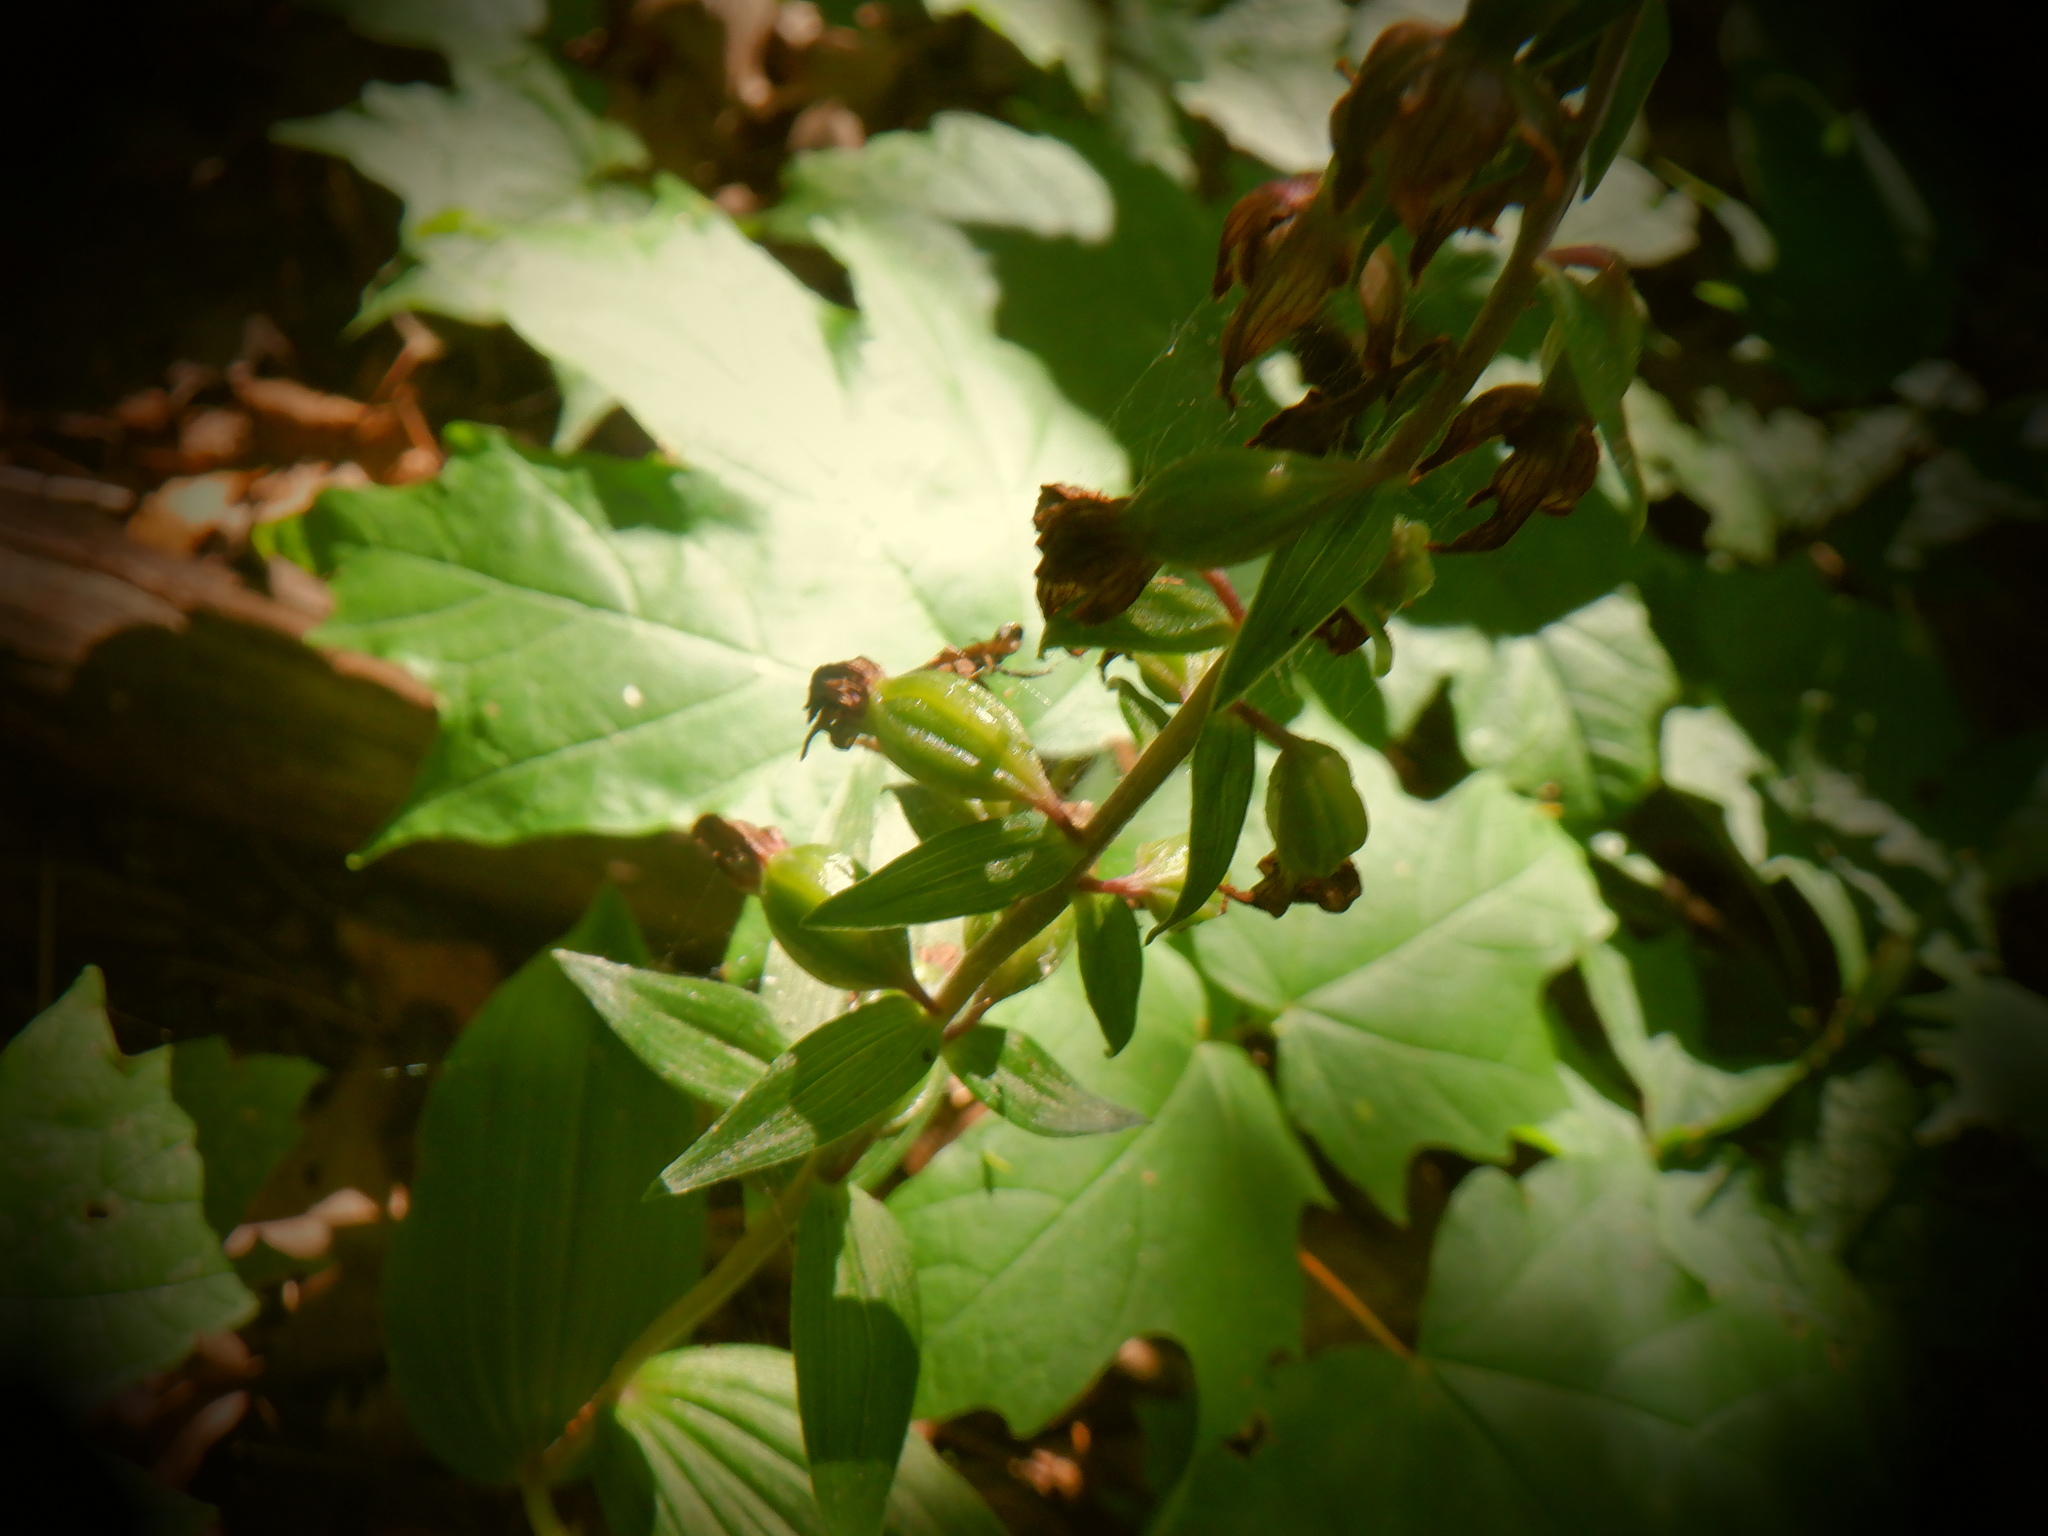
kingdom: Plantae
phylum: Tracheophyta
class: Liliopsida
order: Asparagales
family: Orchidaceae
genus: Epipactis
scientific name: Epipactis helleborine
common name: Broad-leaved helleborine
